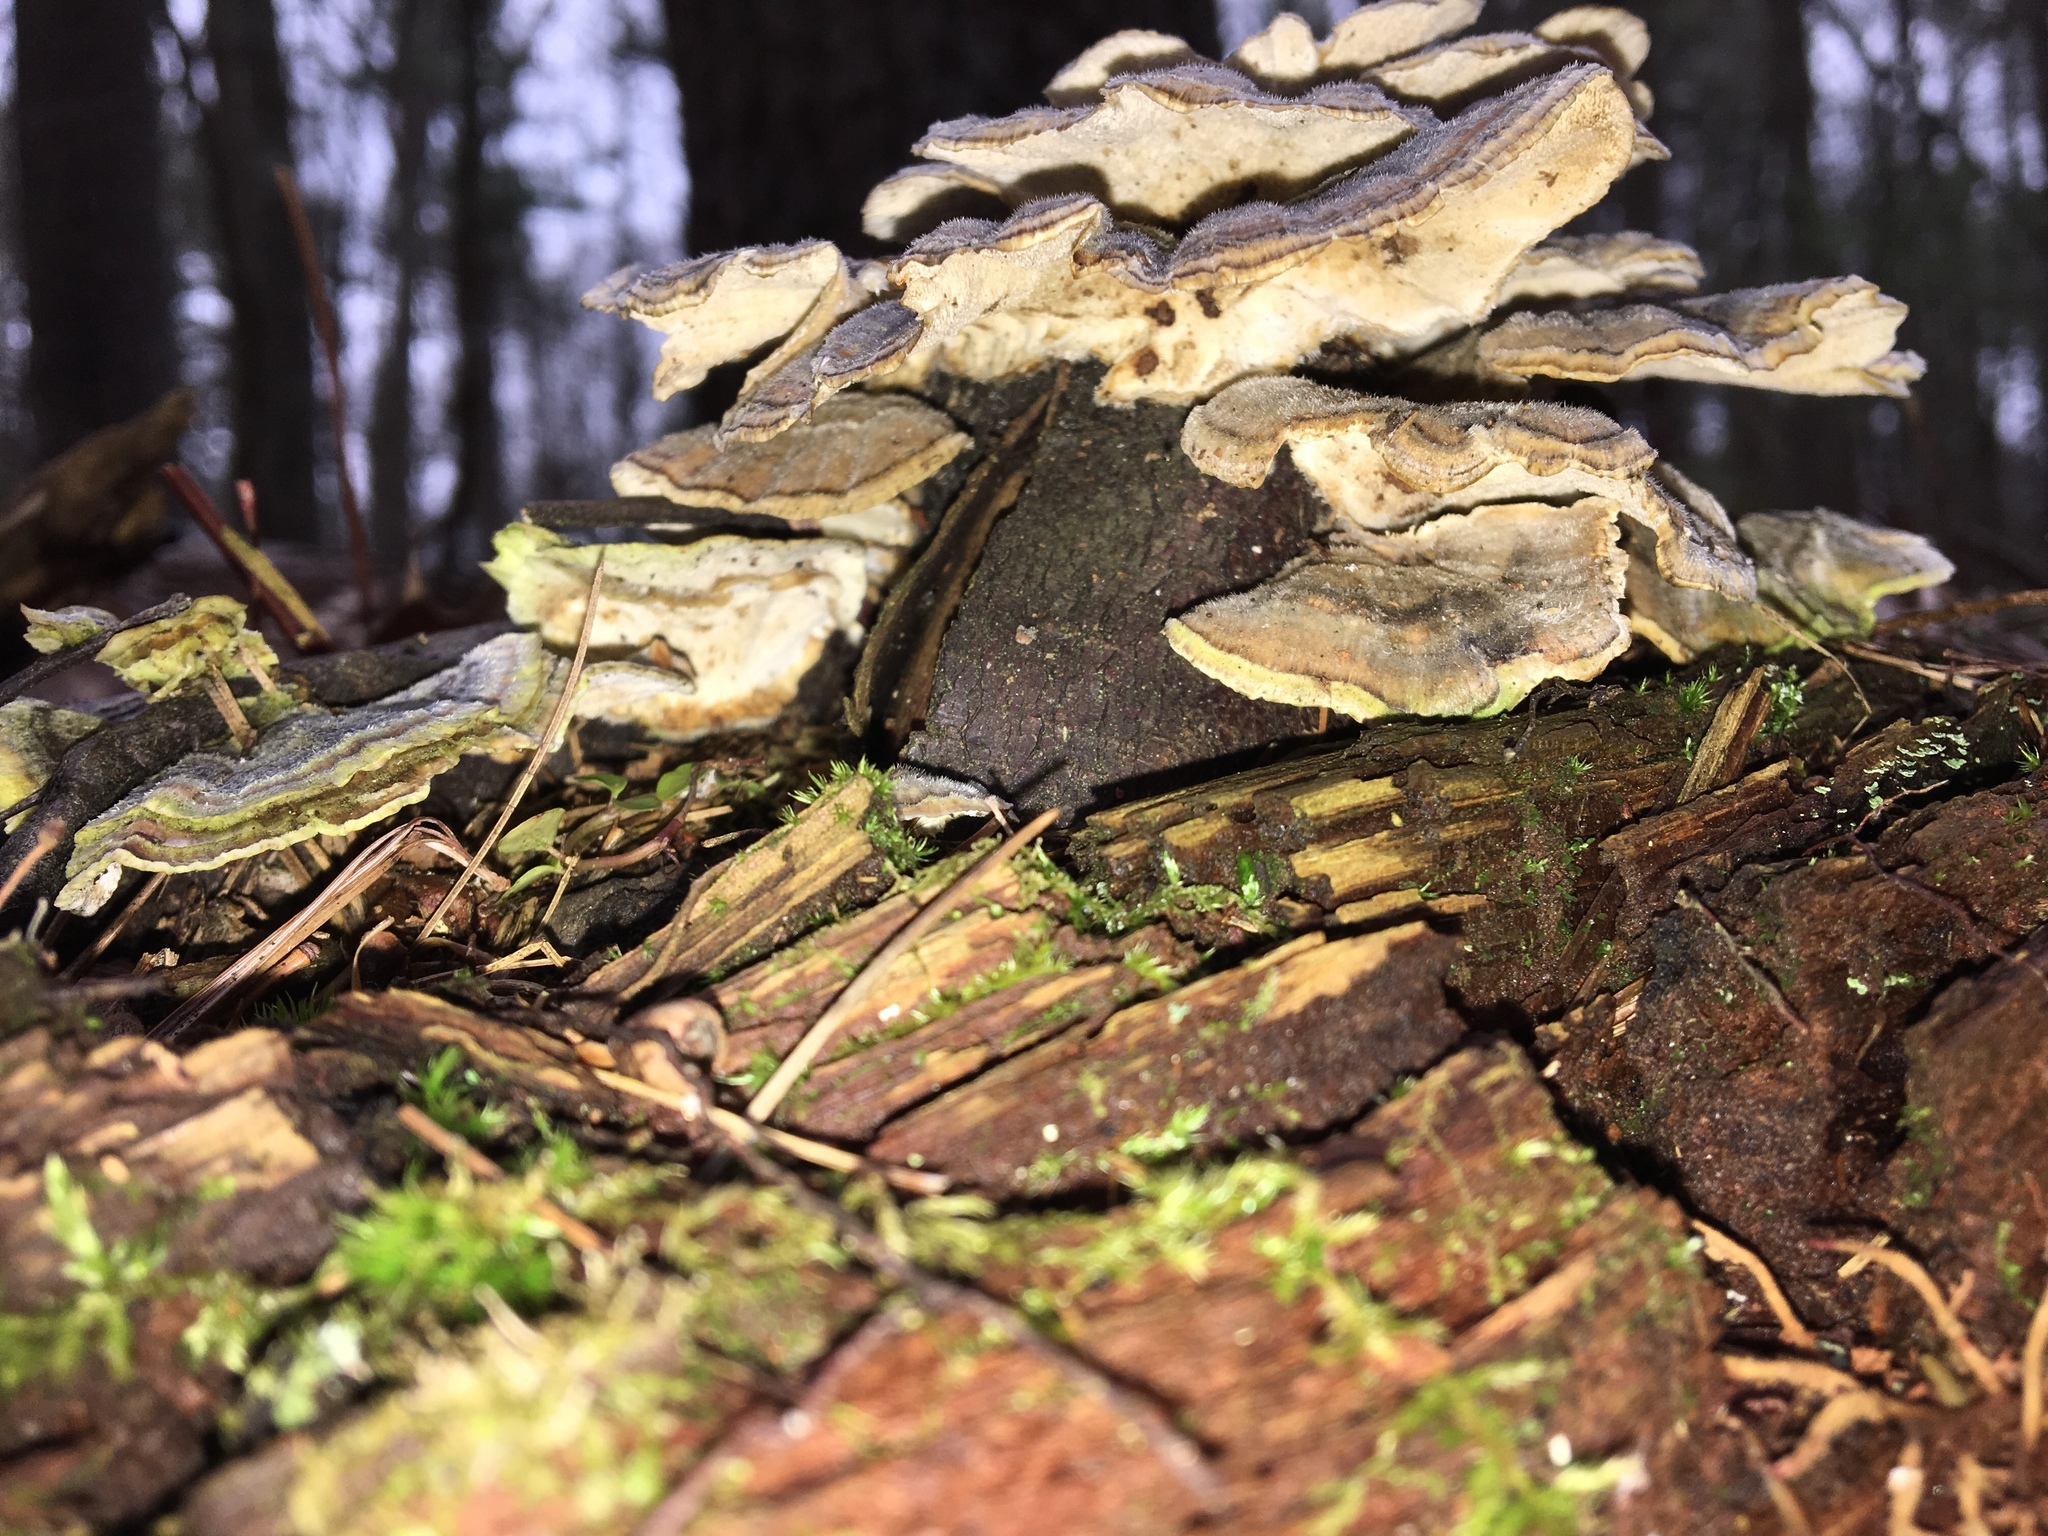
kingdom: Fungi
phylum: Basidiomycota
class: Agaricomycetes
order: Polyporales
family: Polyporaceae
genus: Trametes
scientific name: Trametes versicolor
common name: Turkeytail
